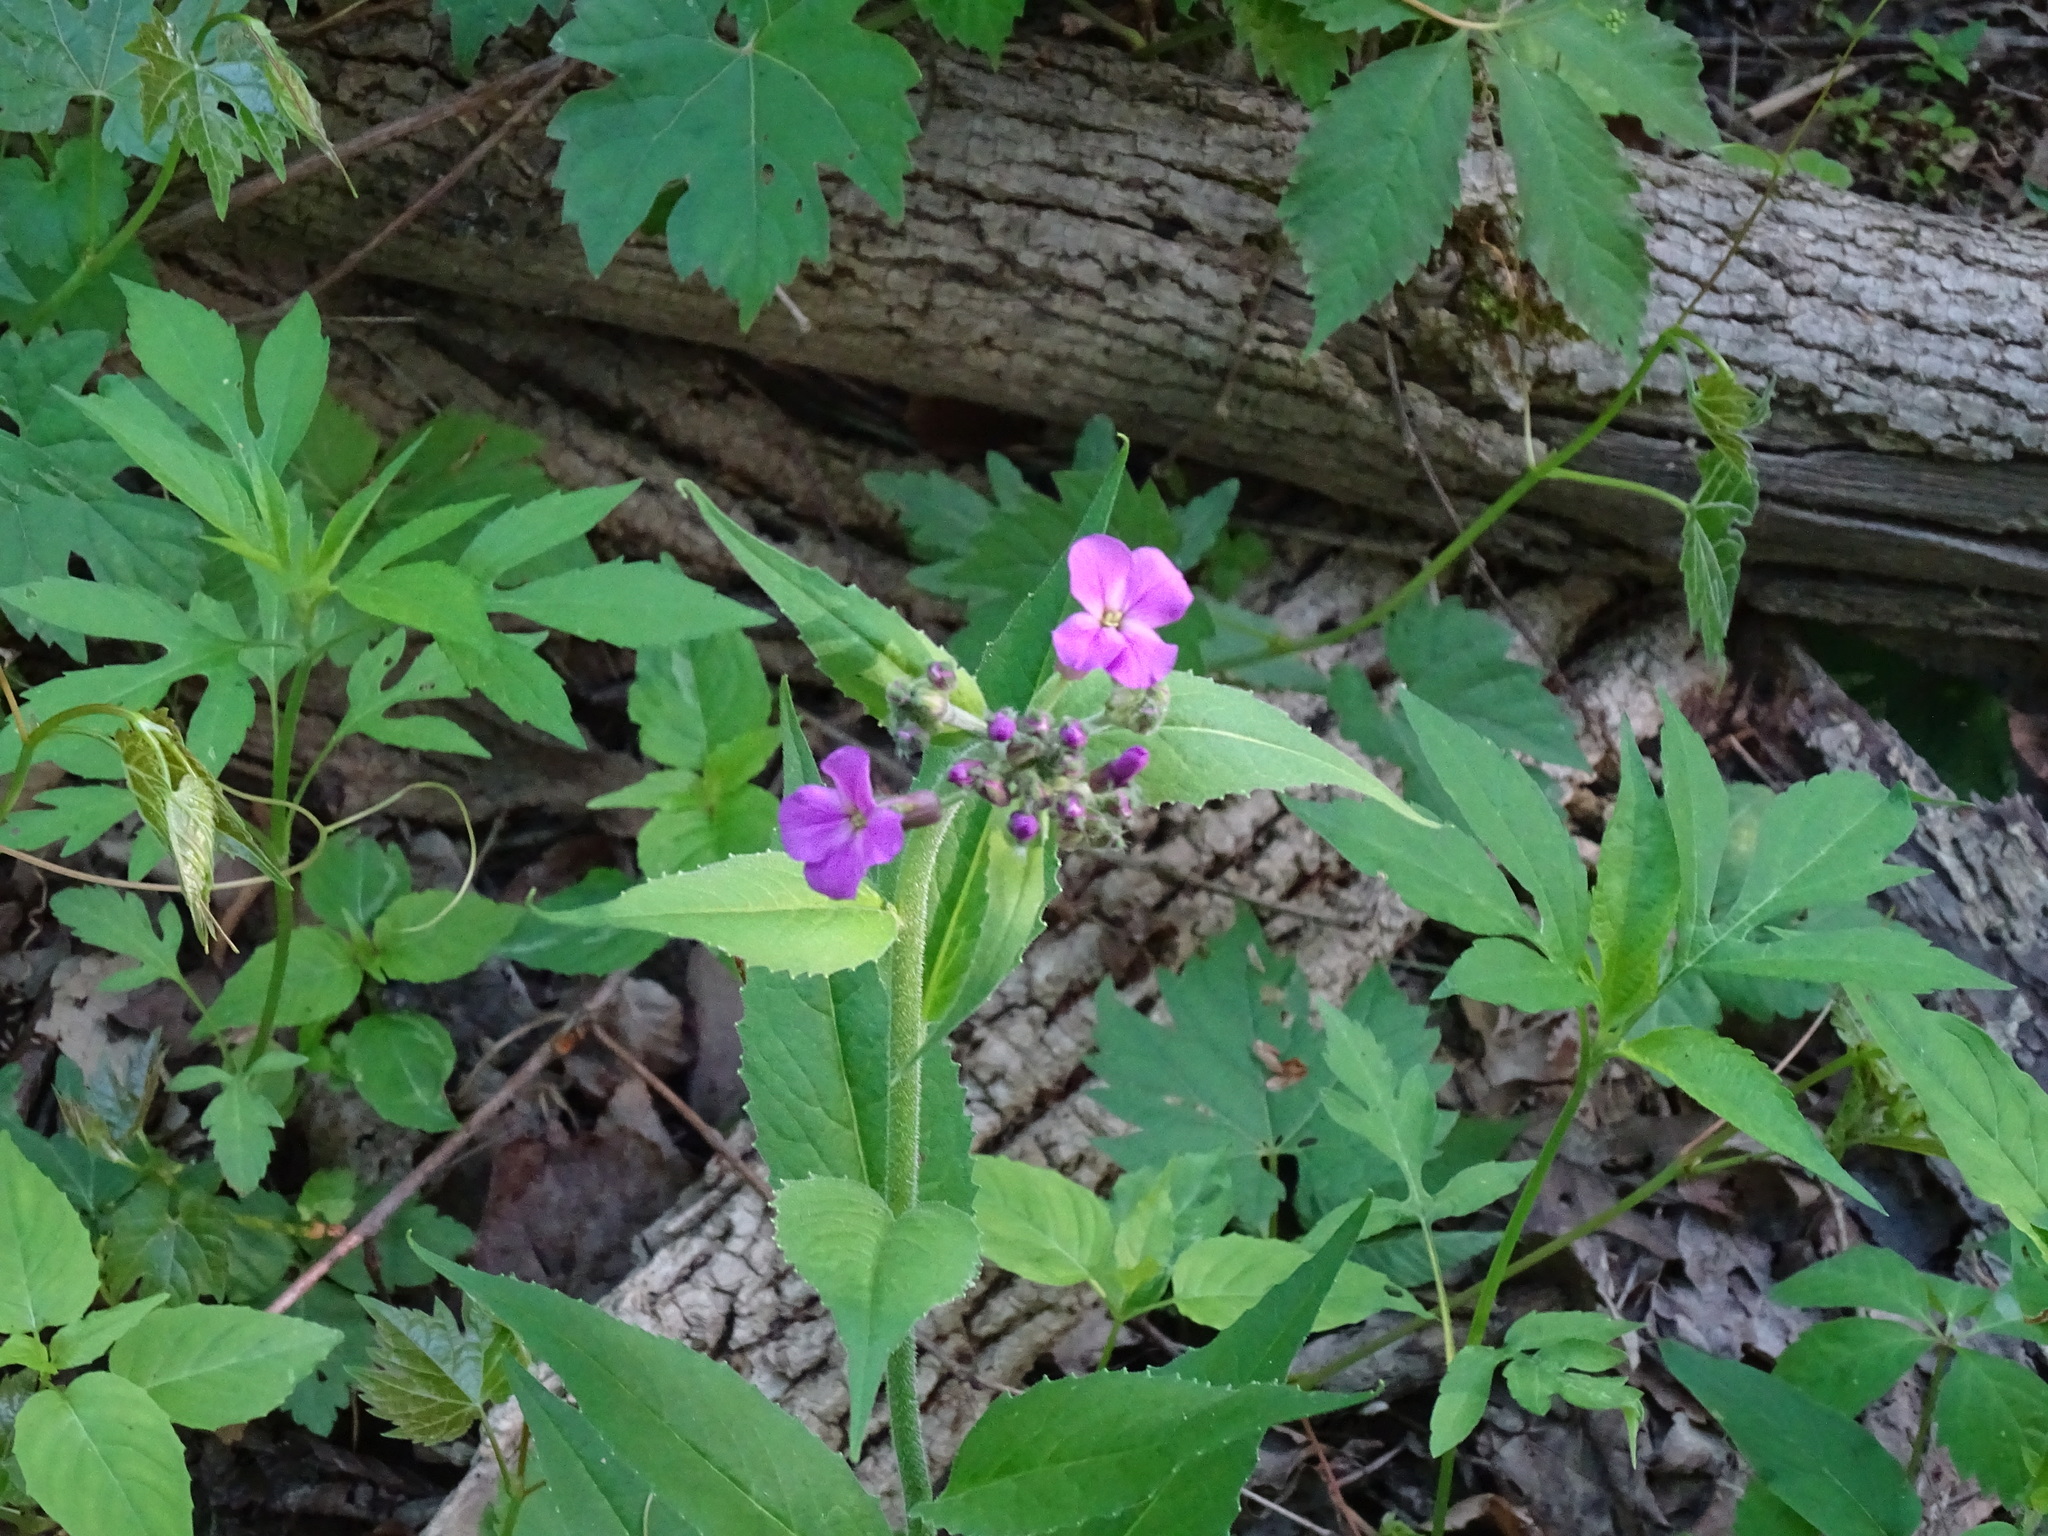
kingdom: Plantae
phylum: Tracheophyta
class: Magnoliopsida
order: Brassicales
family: Brassicaceae
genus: Hesperis
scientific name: Hesperis matronalis
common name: Dame's-violet
